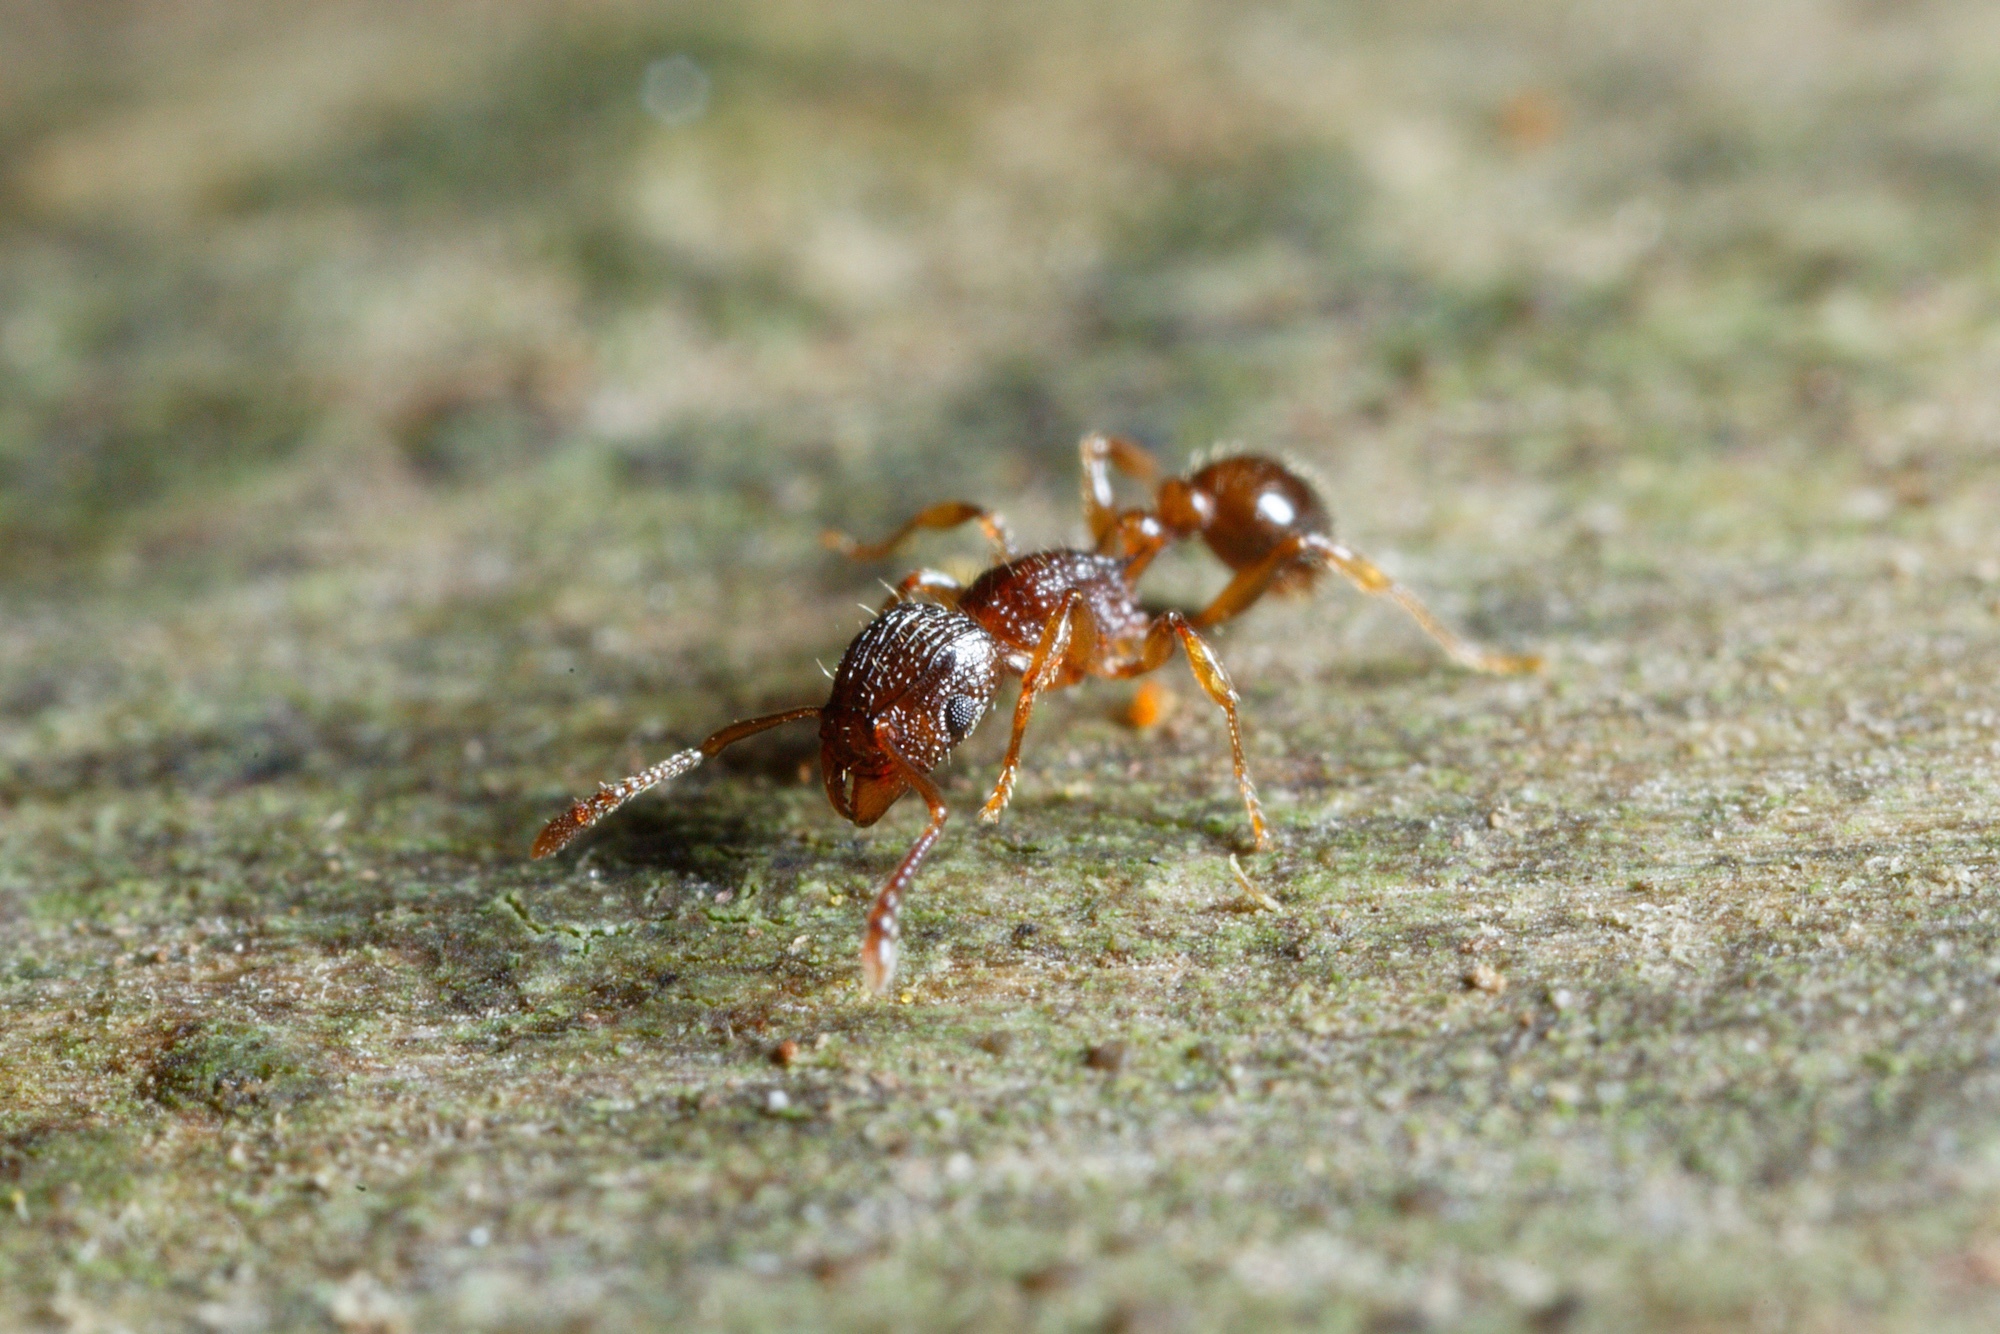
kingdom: Animalia
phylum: Arthropoda
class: Insecta
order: Hymenoptera
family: Formicidae
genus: Tetramorium
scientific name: Tetramorium grassii
